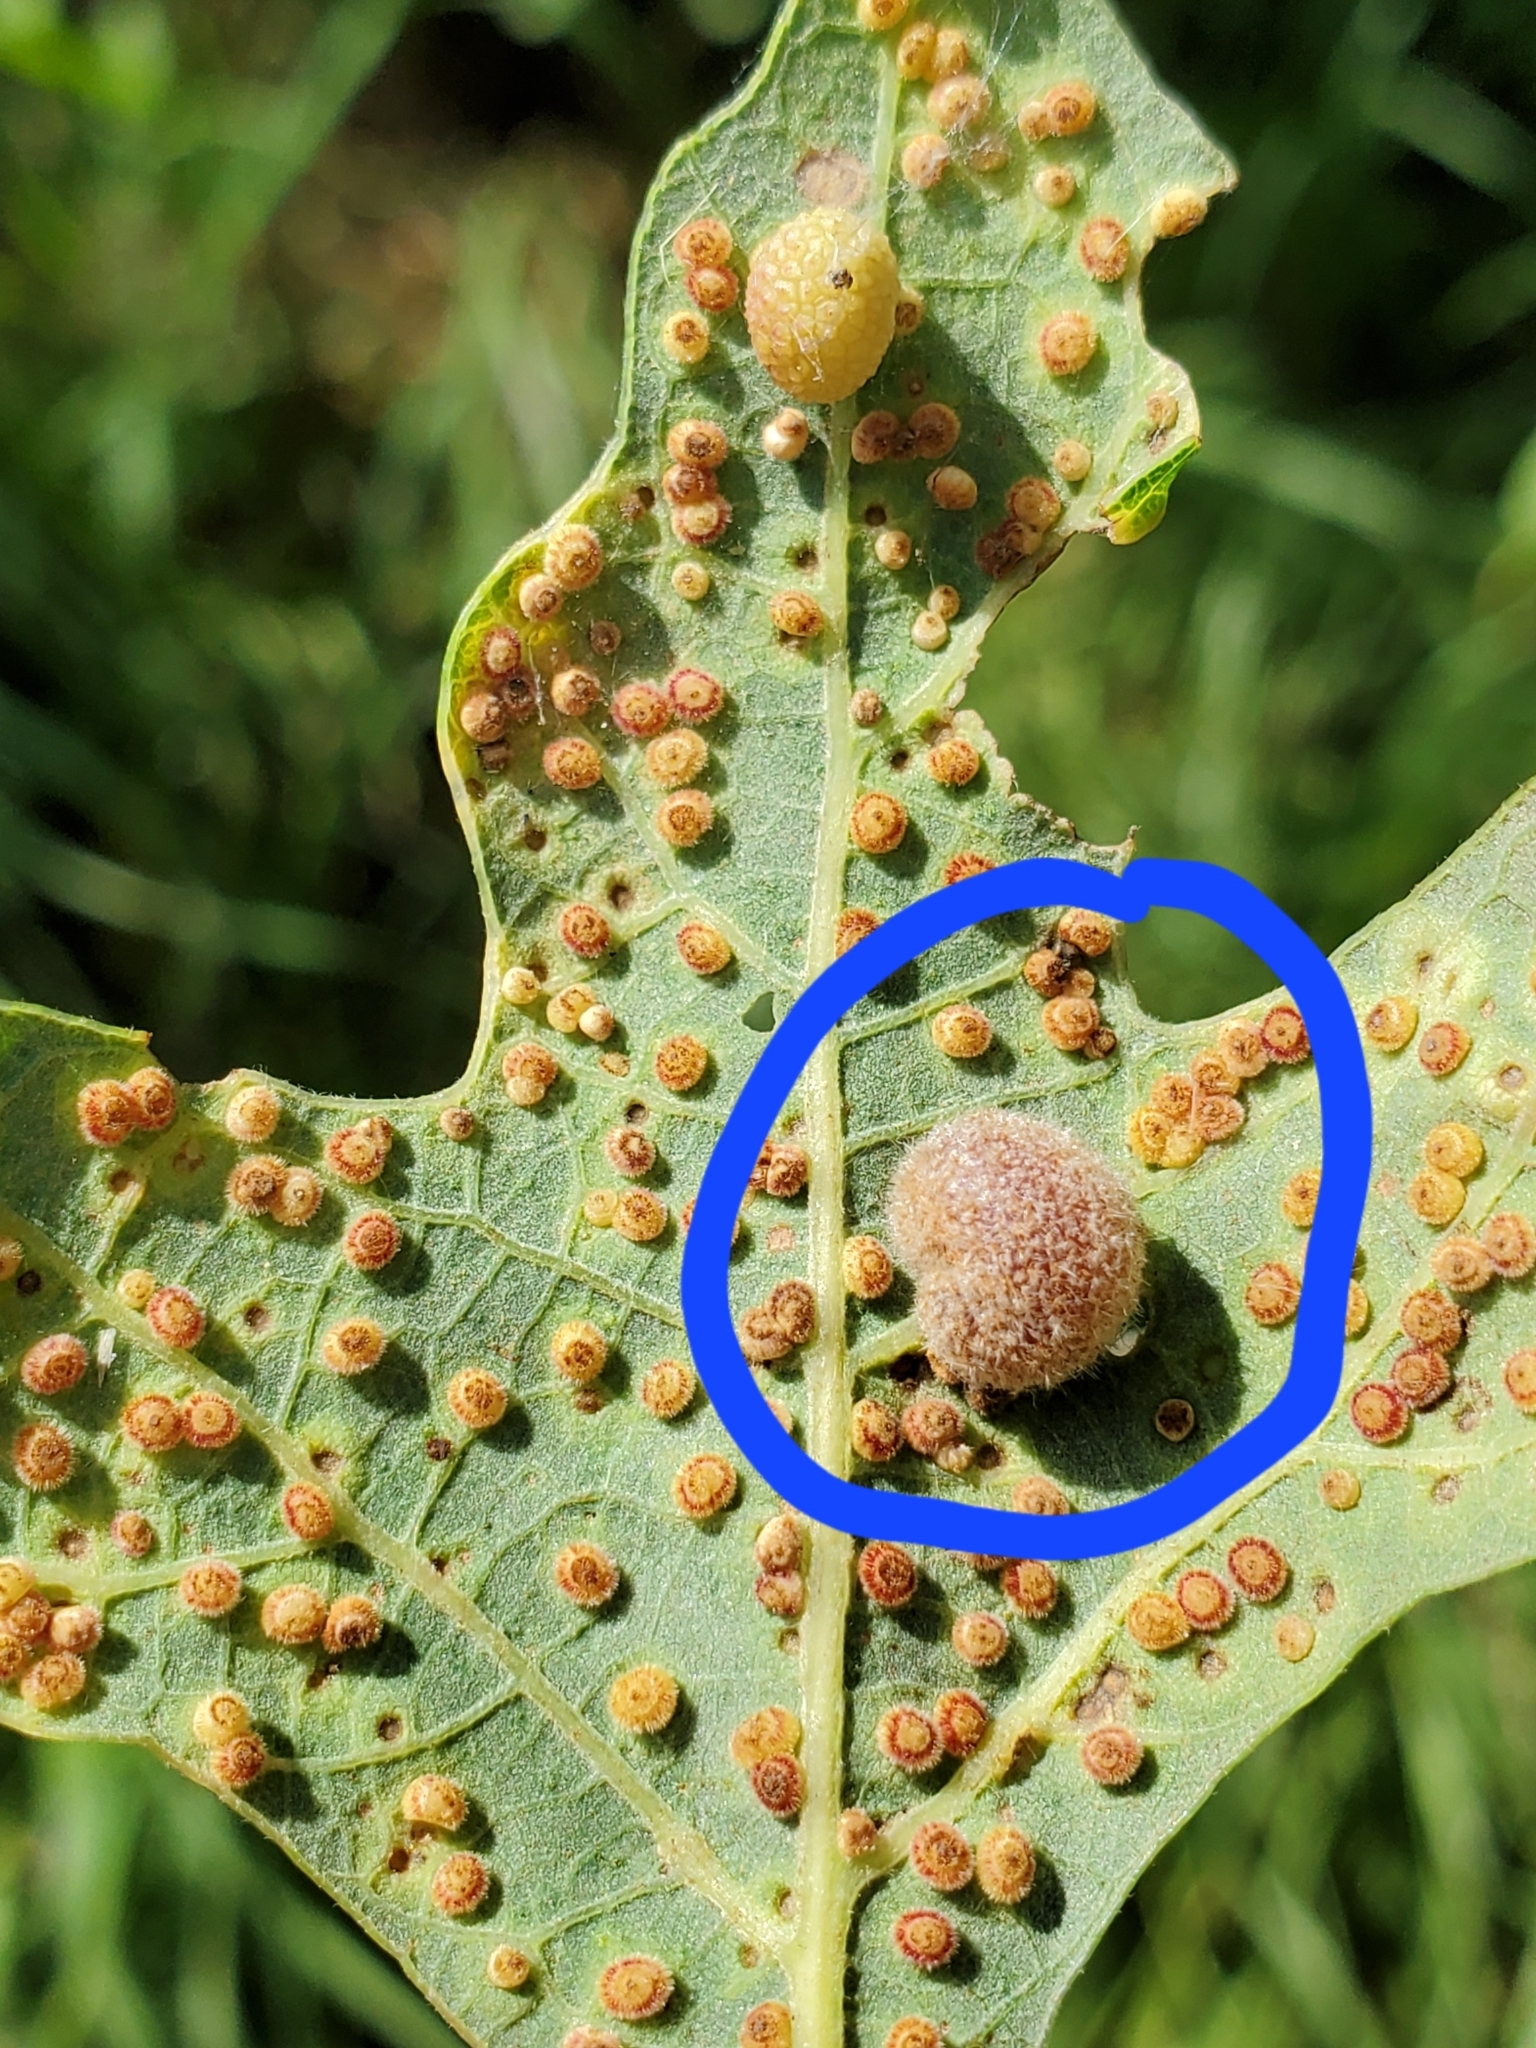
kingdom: Animalia
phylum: Arthropoda
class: Insecta
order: Hymenoptera
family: Cynipidae
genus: Philonix
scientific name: Philonix fulvicollis
